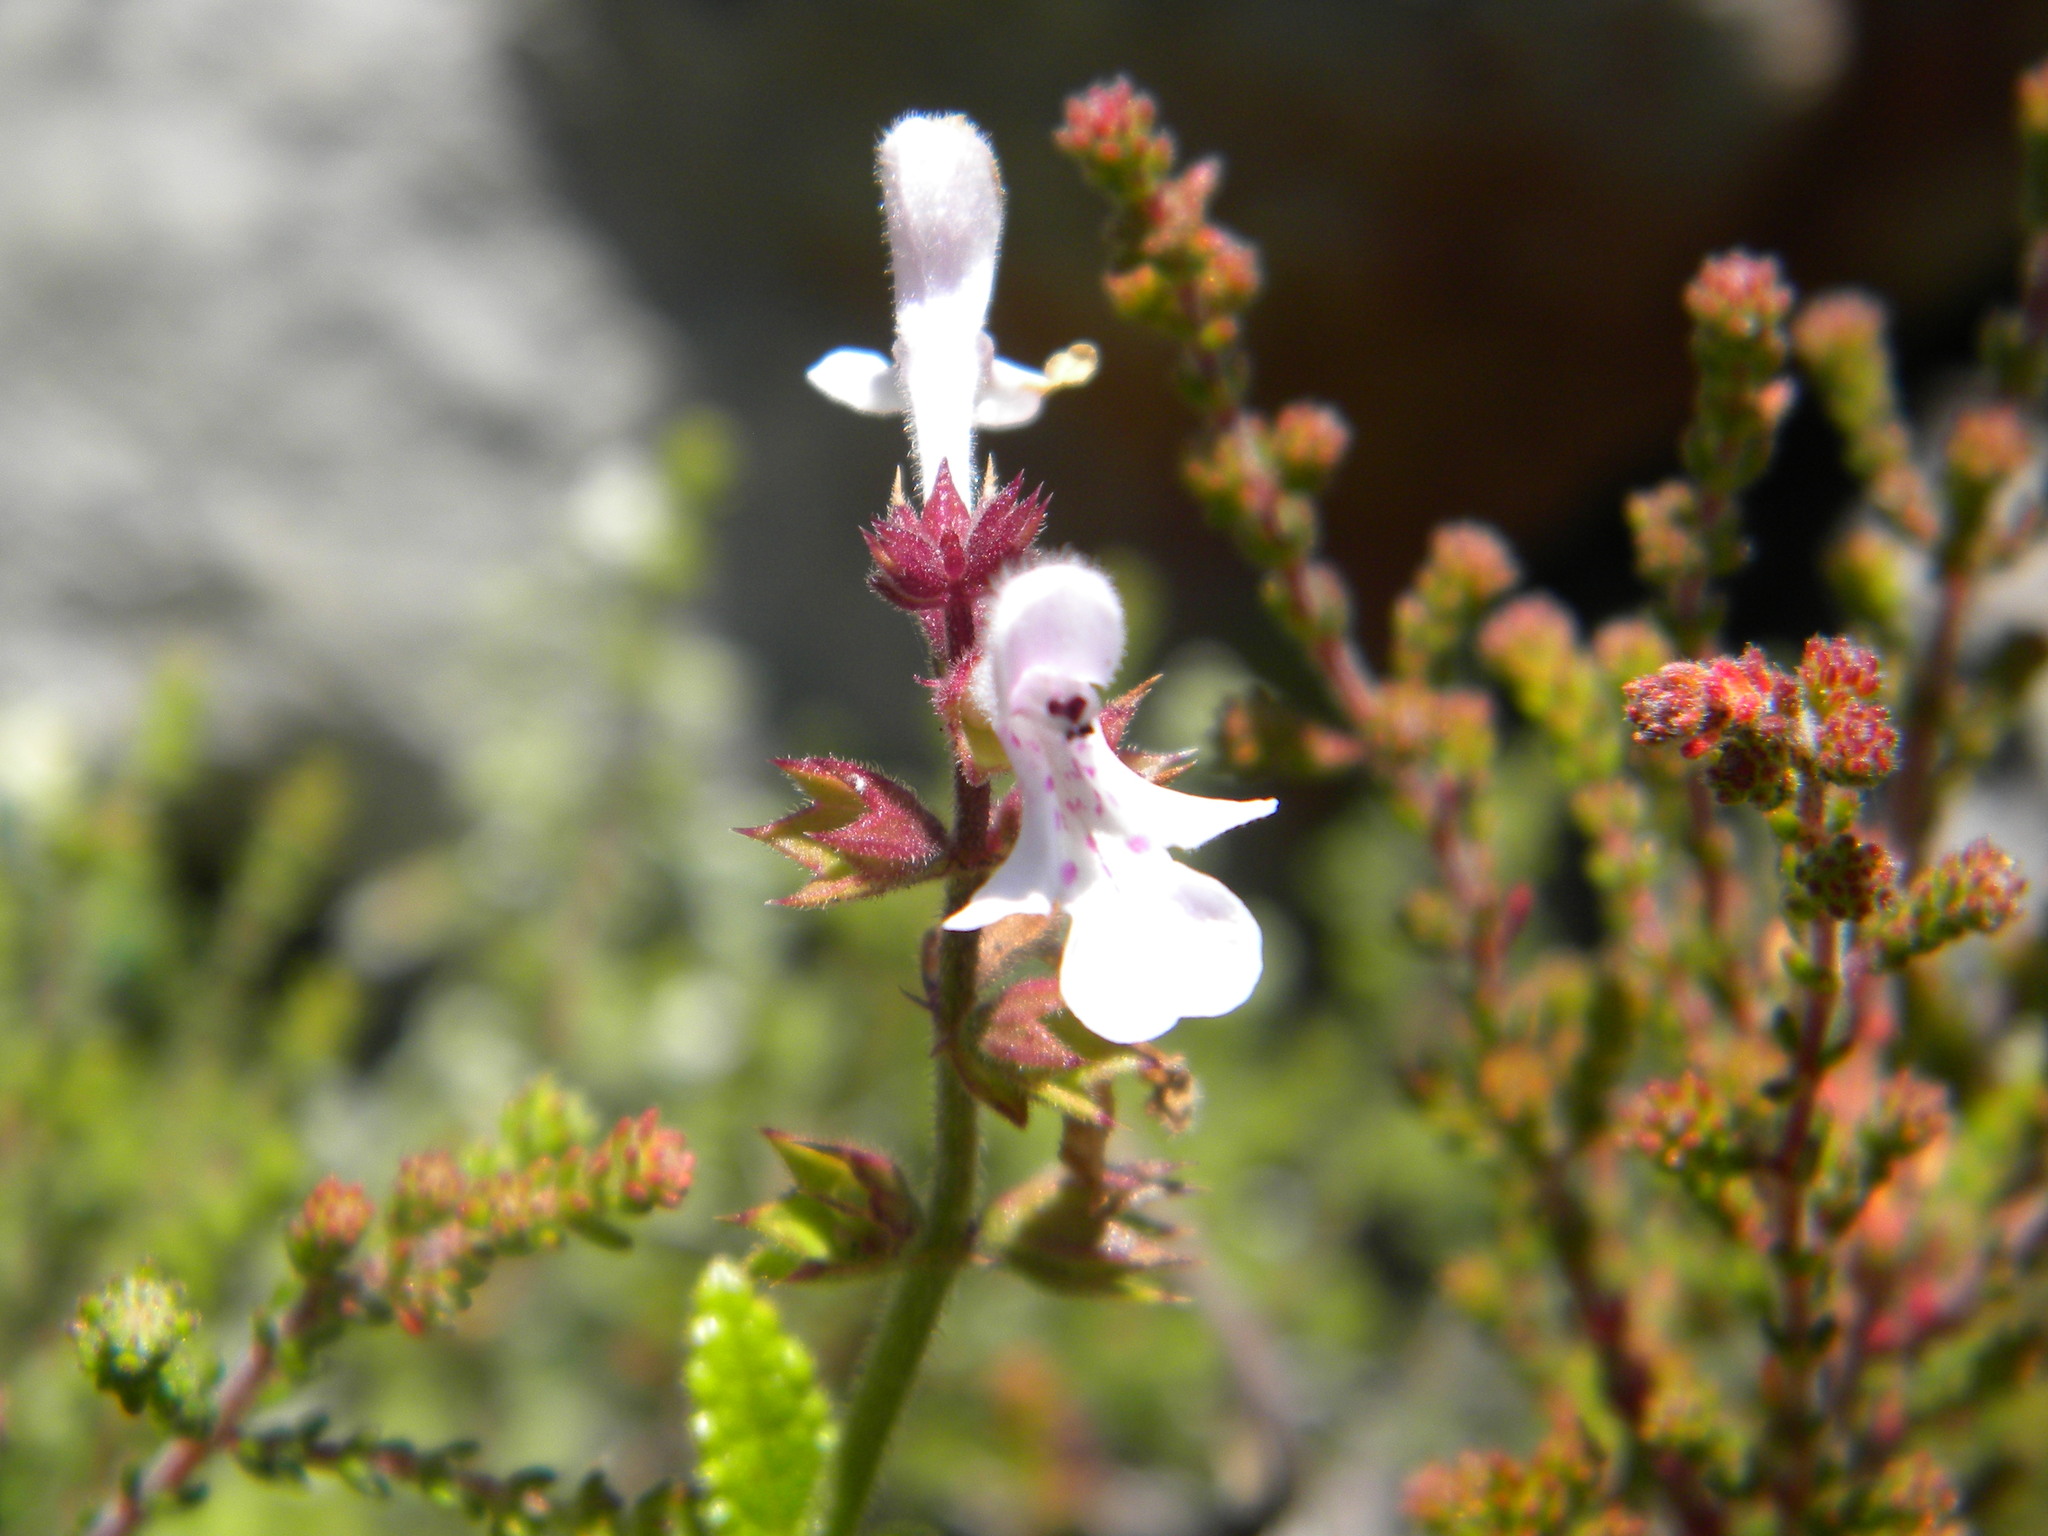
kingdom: Plantae
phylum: Tracheophyta
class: Magnoliopsida
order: Lamiales
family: Lamiaceae
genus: Stachys
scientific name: Stachys aethiopica
